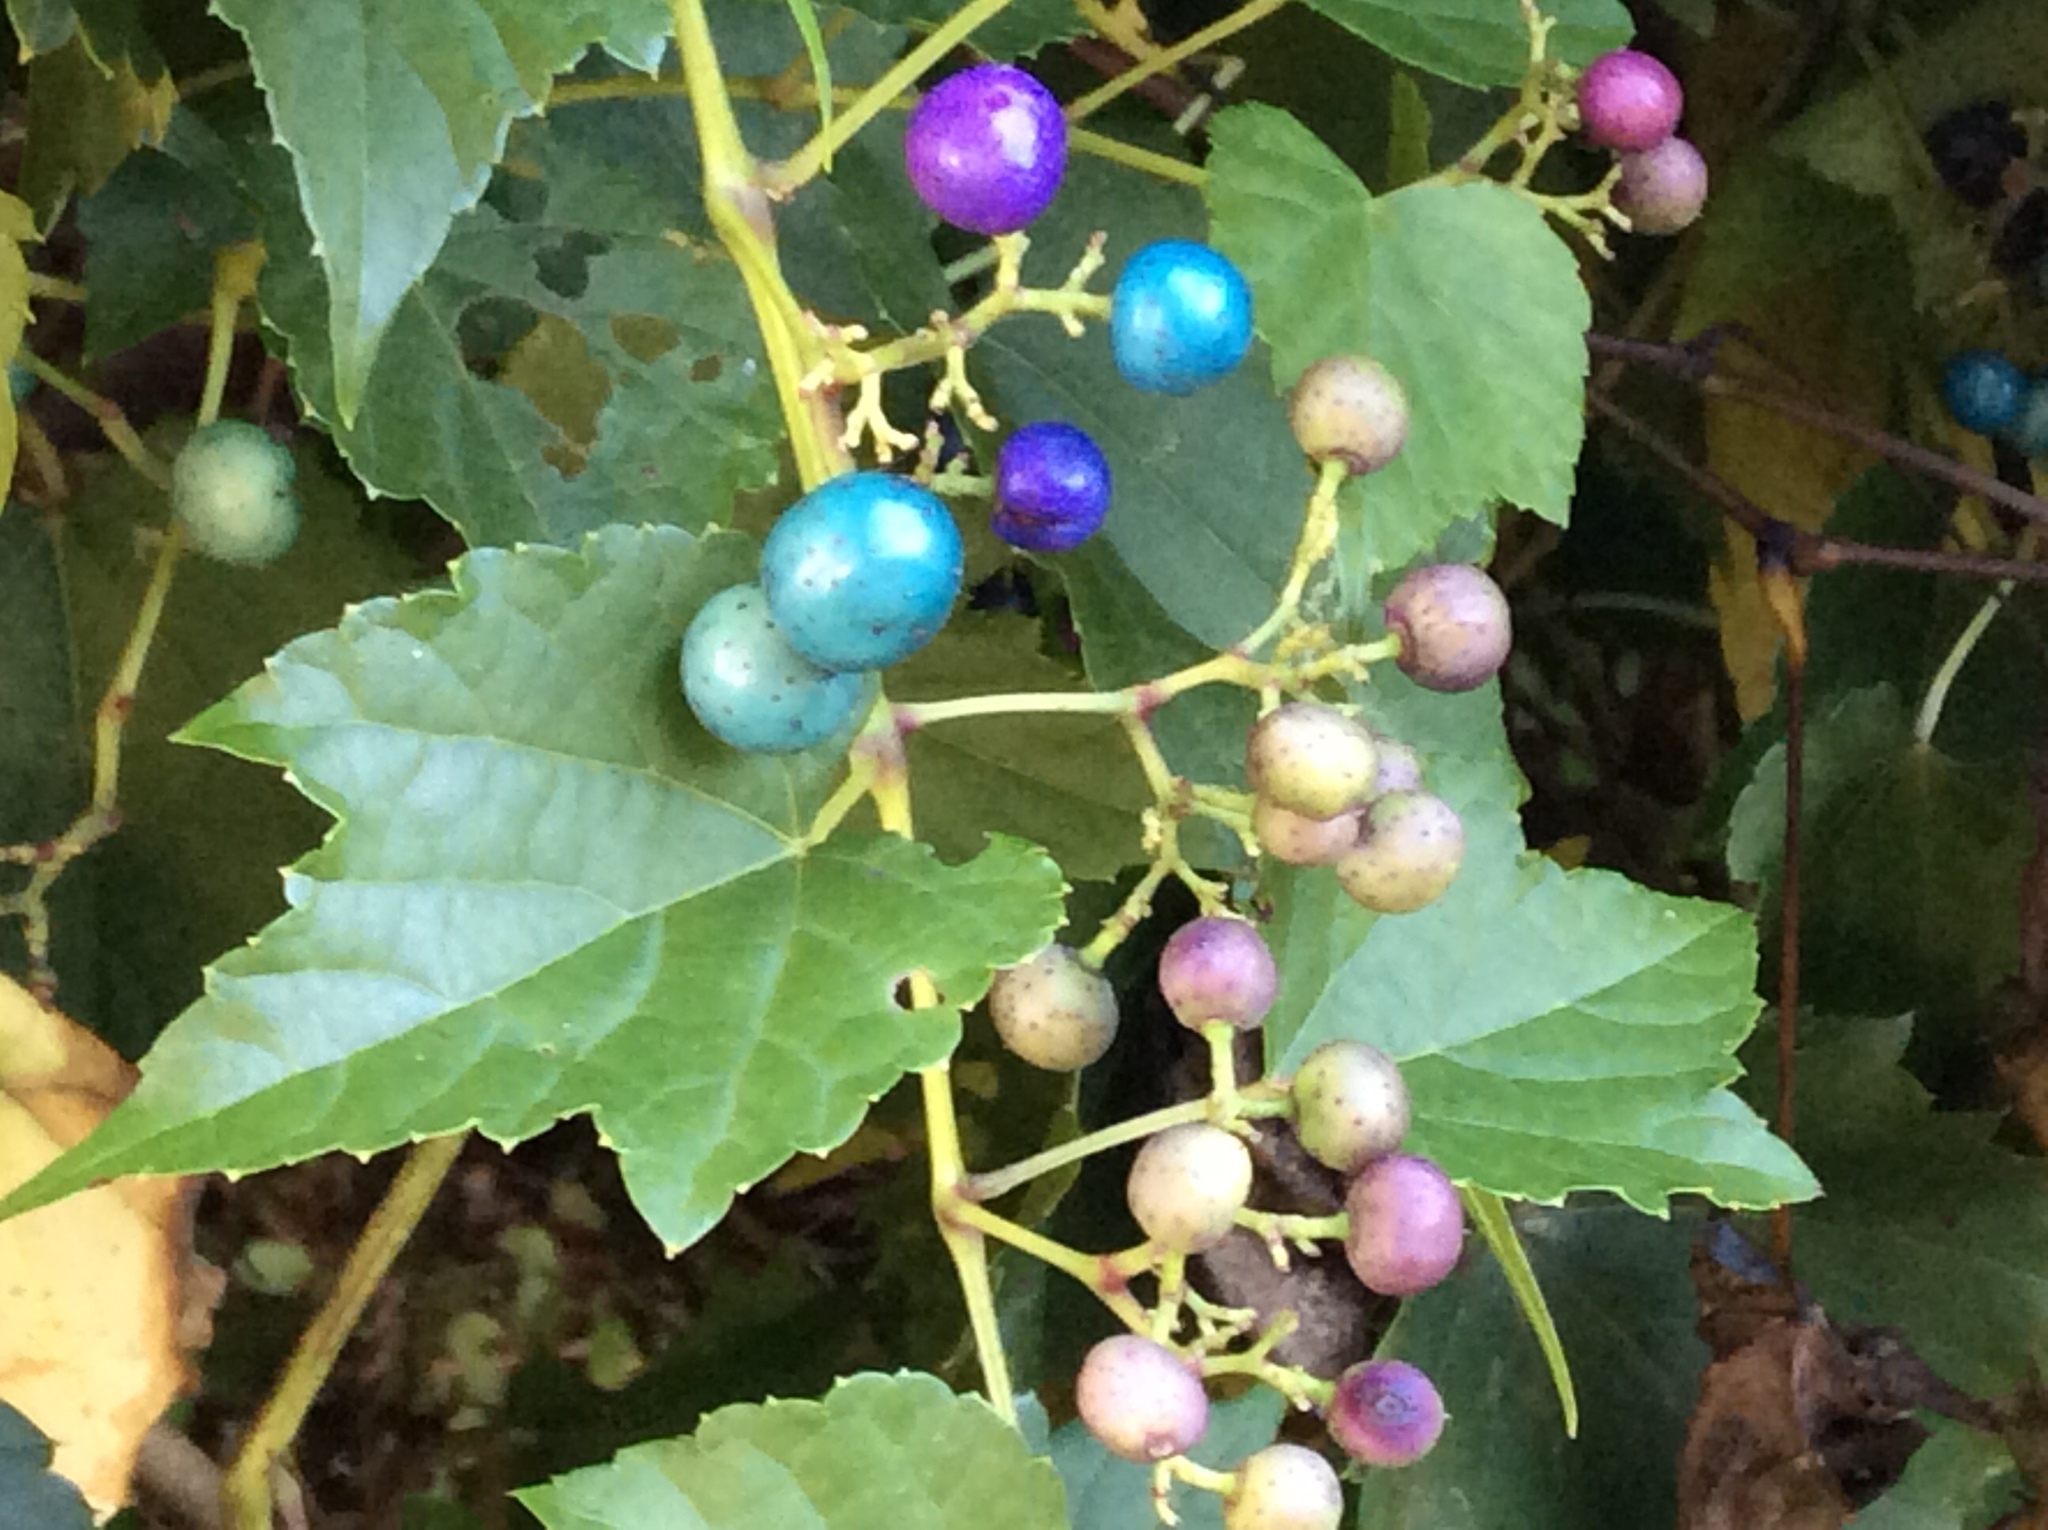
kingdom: Plantae
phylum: Tracheophyta
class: Magnoliopsida
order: Vitales
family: Vitaceae
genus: Ampelopsis
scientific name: Ampelopsis glandulosa
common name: Amur peppervine
